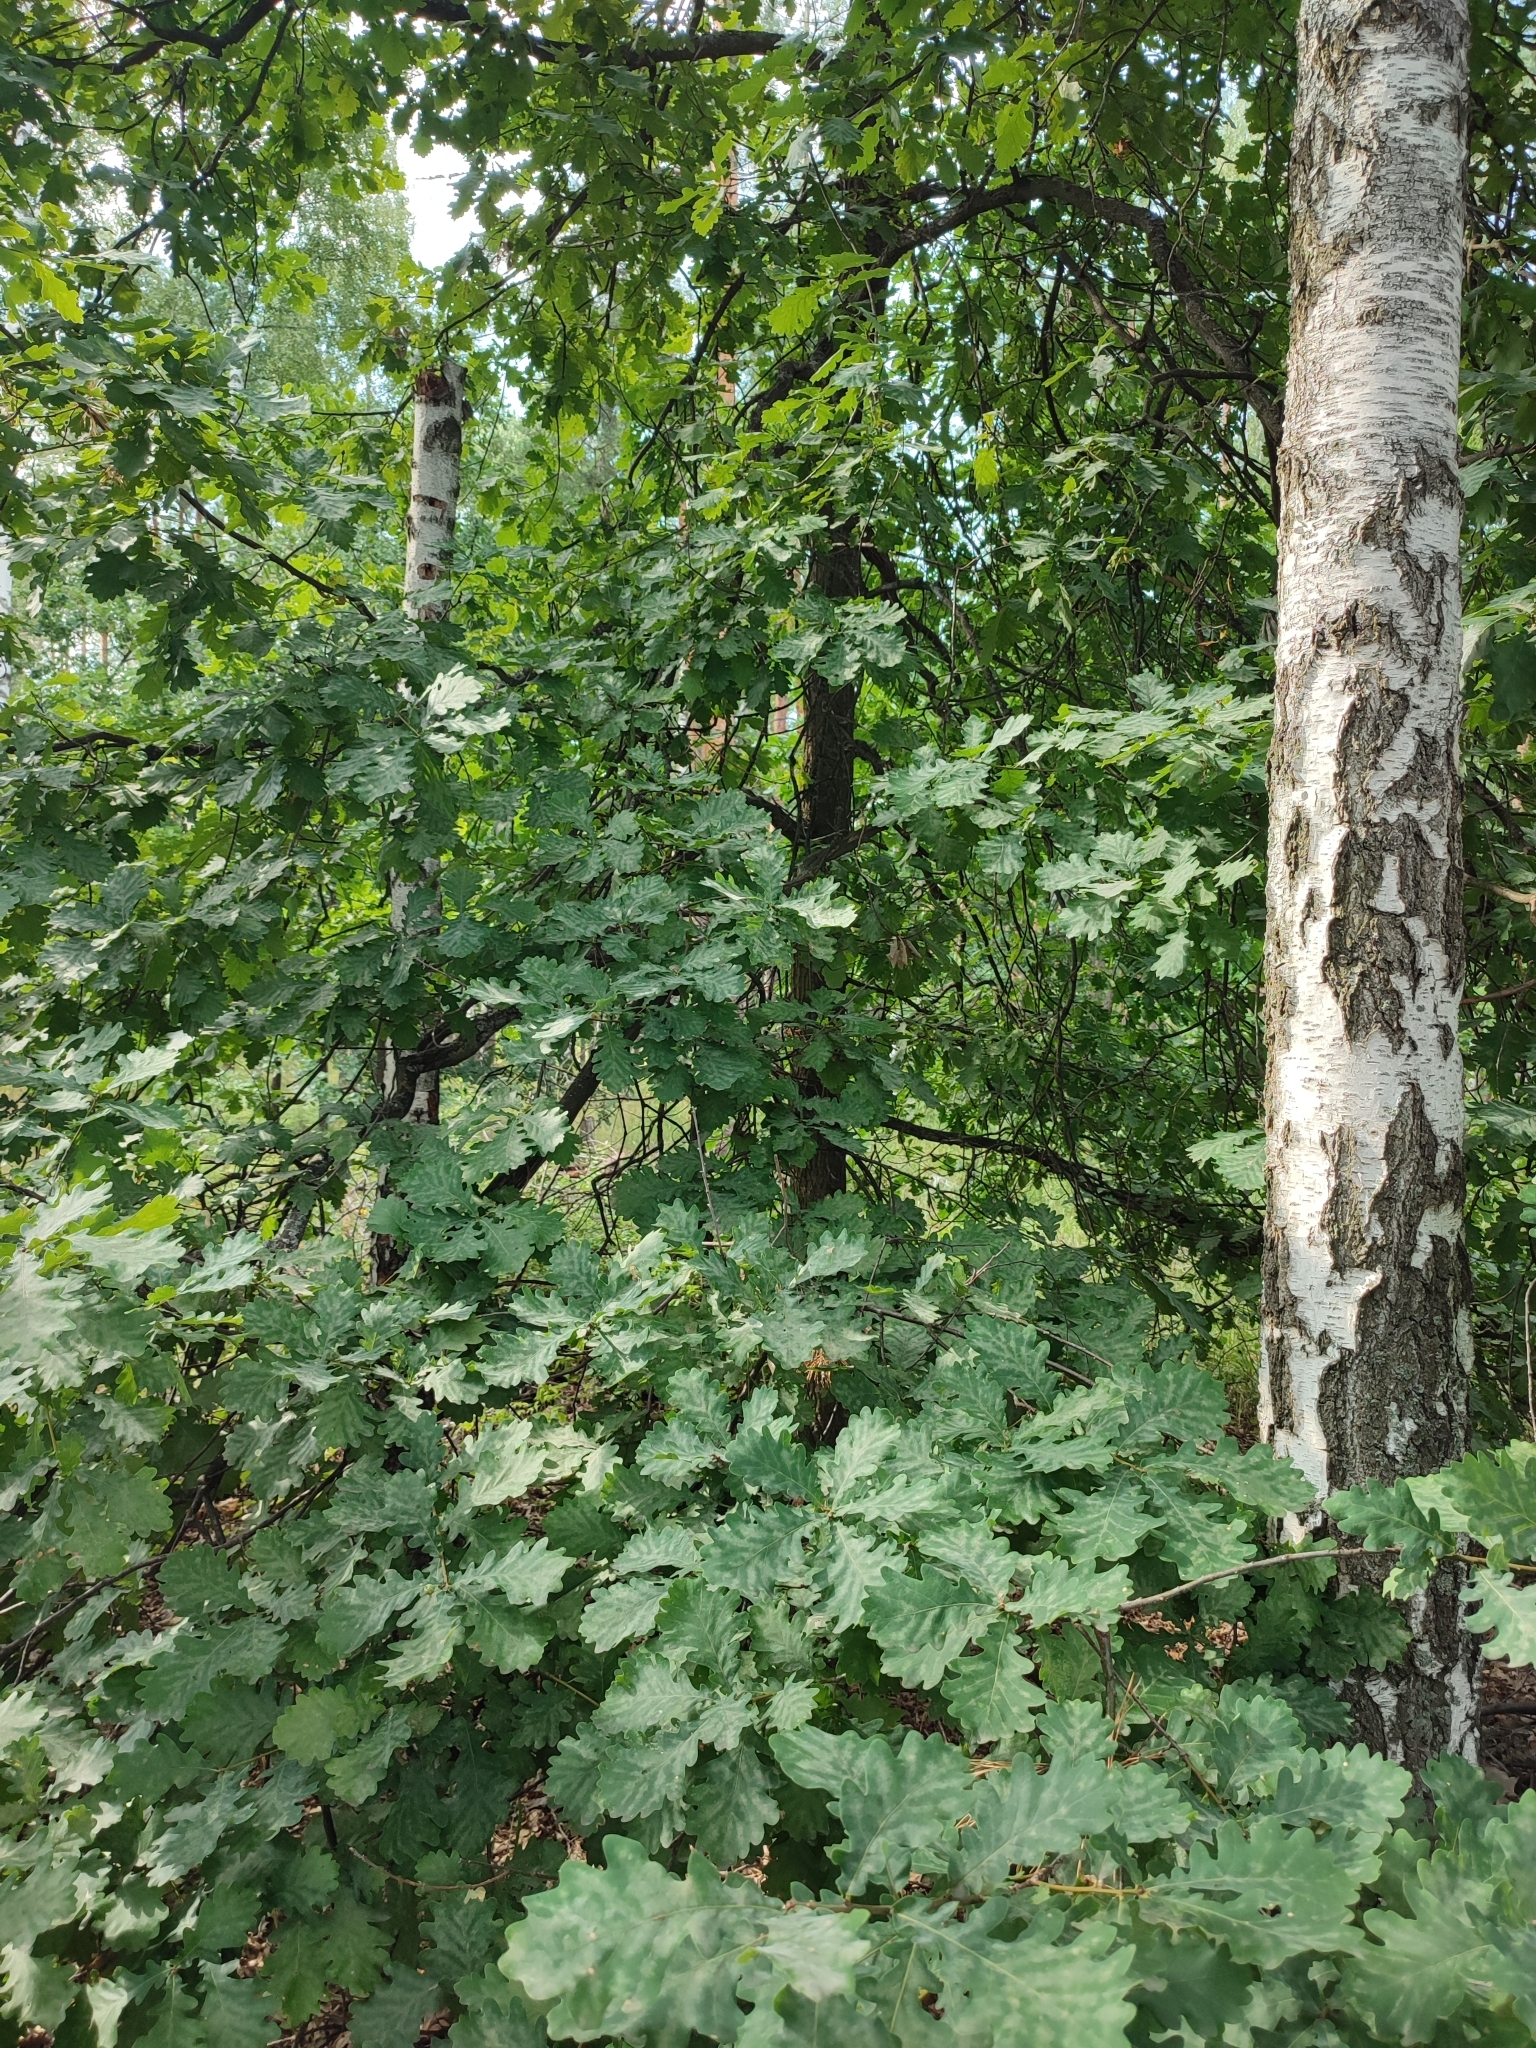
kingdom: Plantae
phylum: Tracheophyta
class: Magnoliopsida
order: Fagales
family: Fagaceae
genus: Quercus
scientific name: Quercus robur
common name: Pedunculate oak
